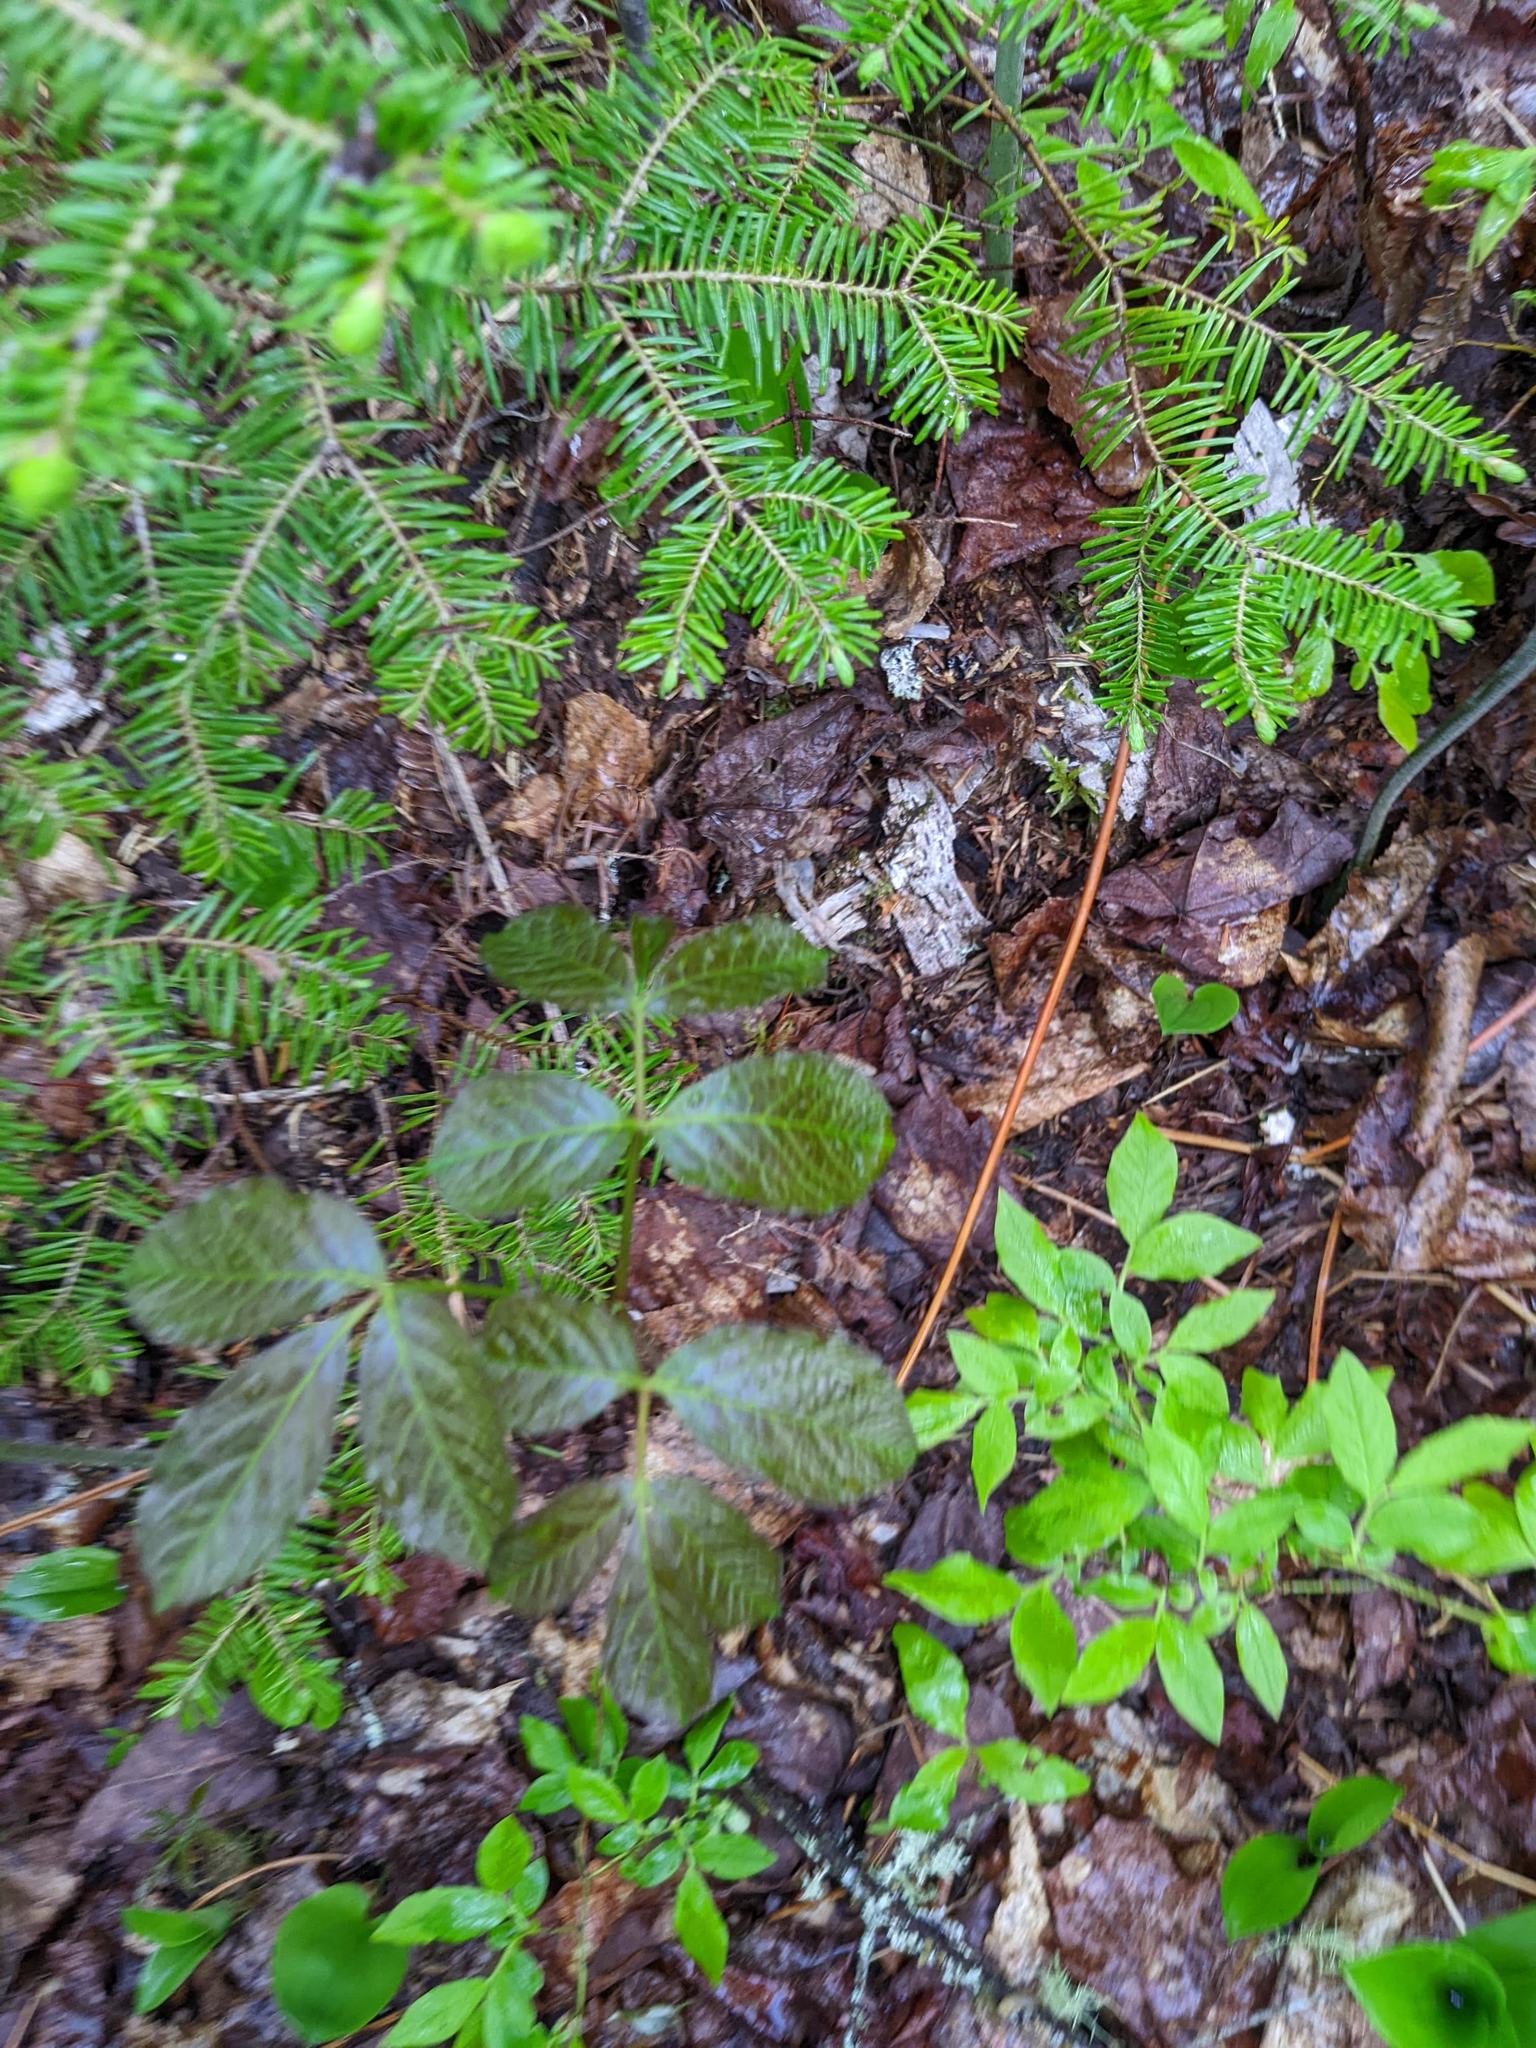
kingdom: Plantae
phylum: Tracheophyta
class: Magnoliopsida
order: Apiales
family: Araliaceae
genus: Aralia
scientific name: Aralia nudicaulis
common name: Wild sarsaparilla
